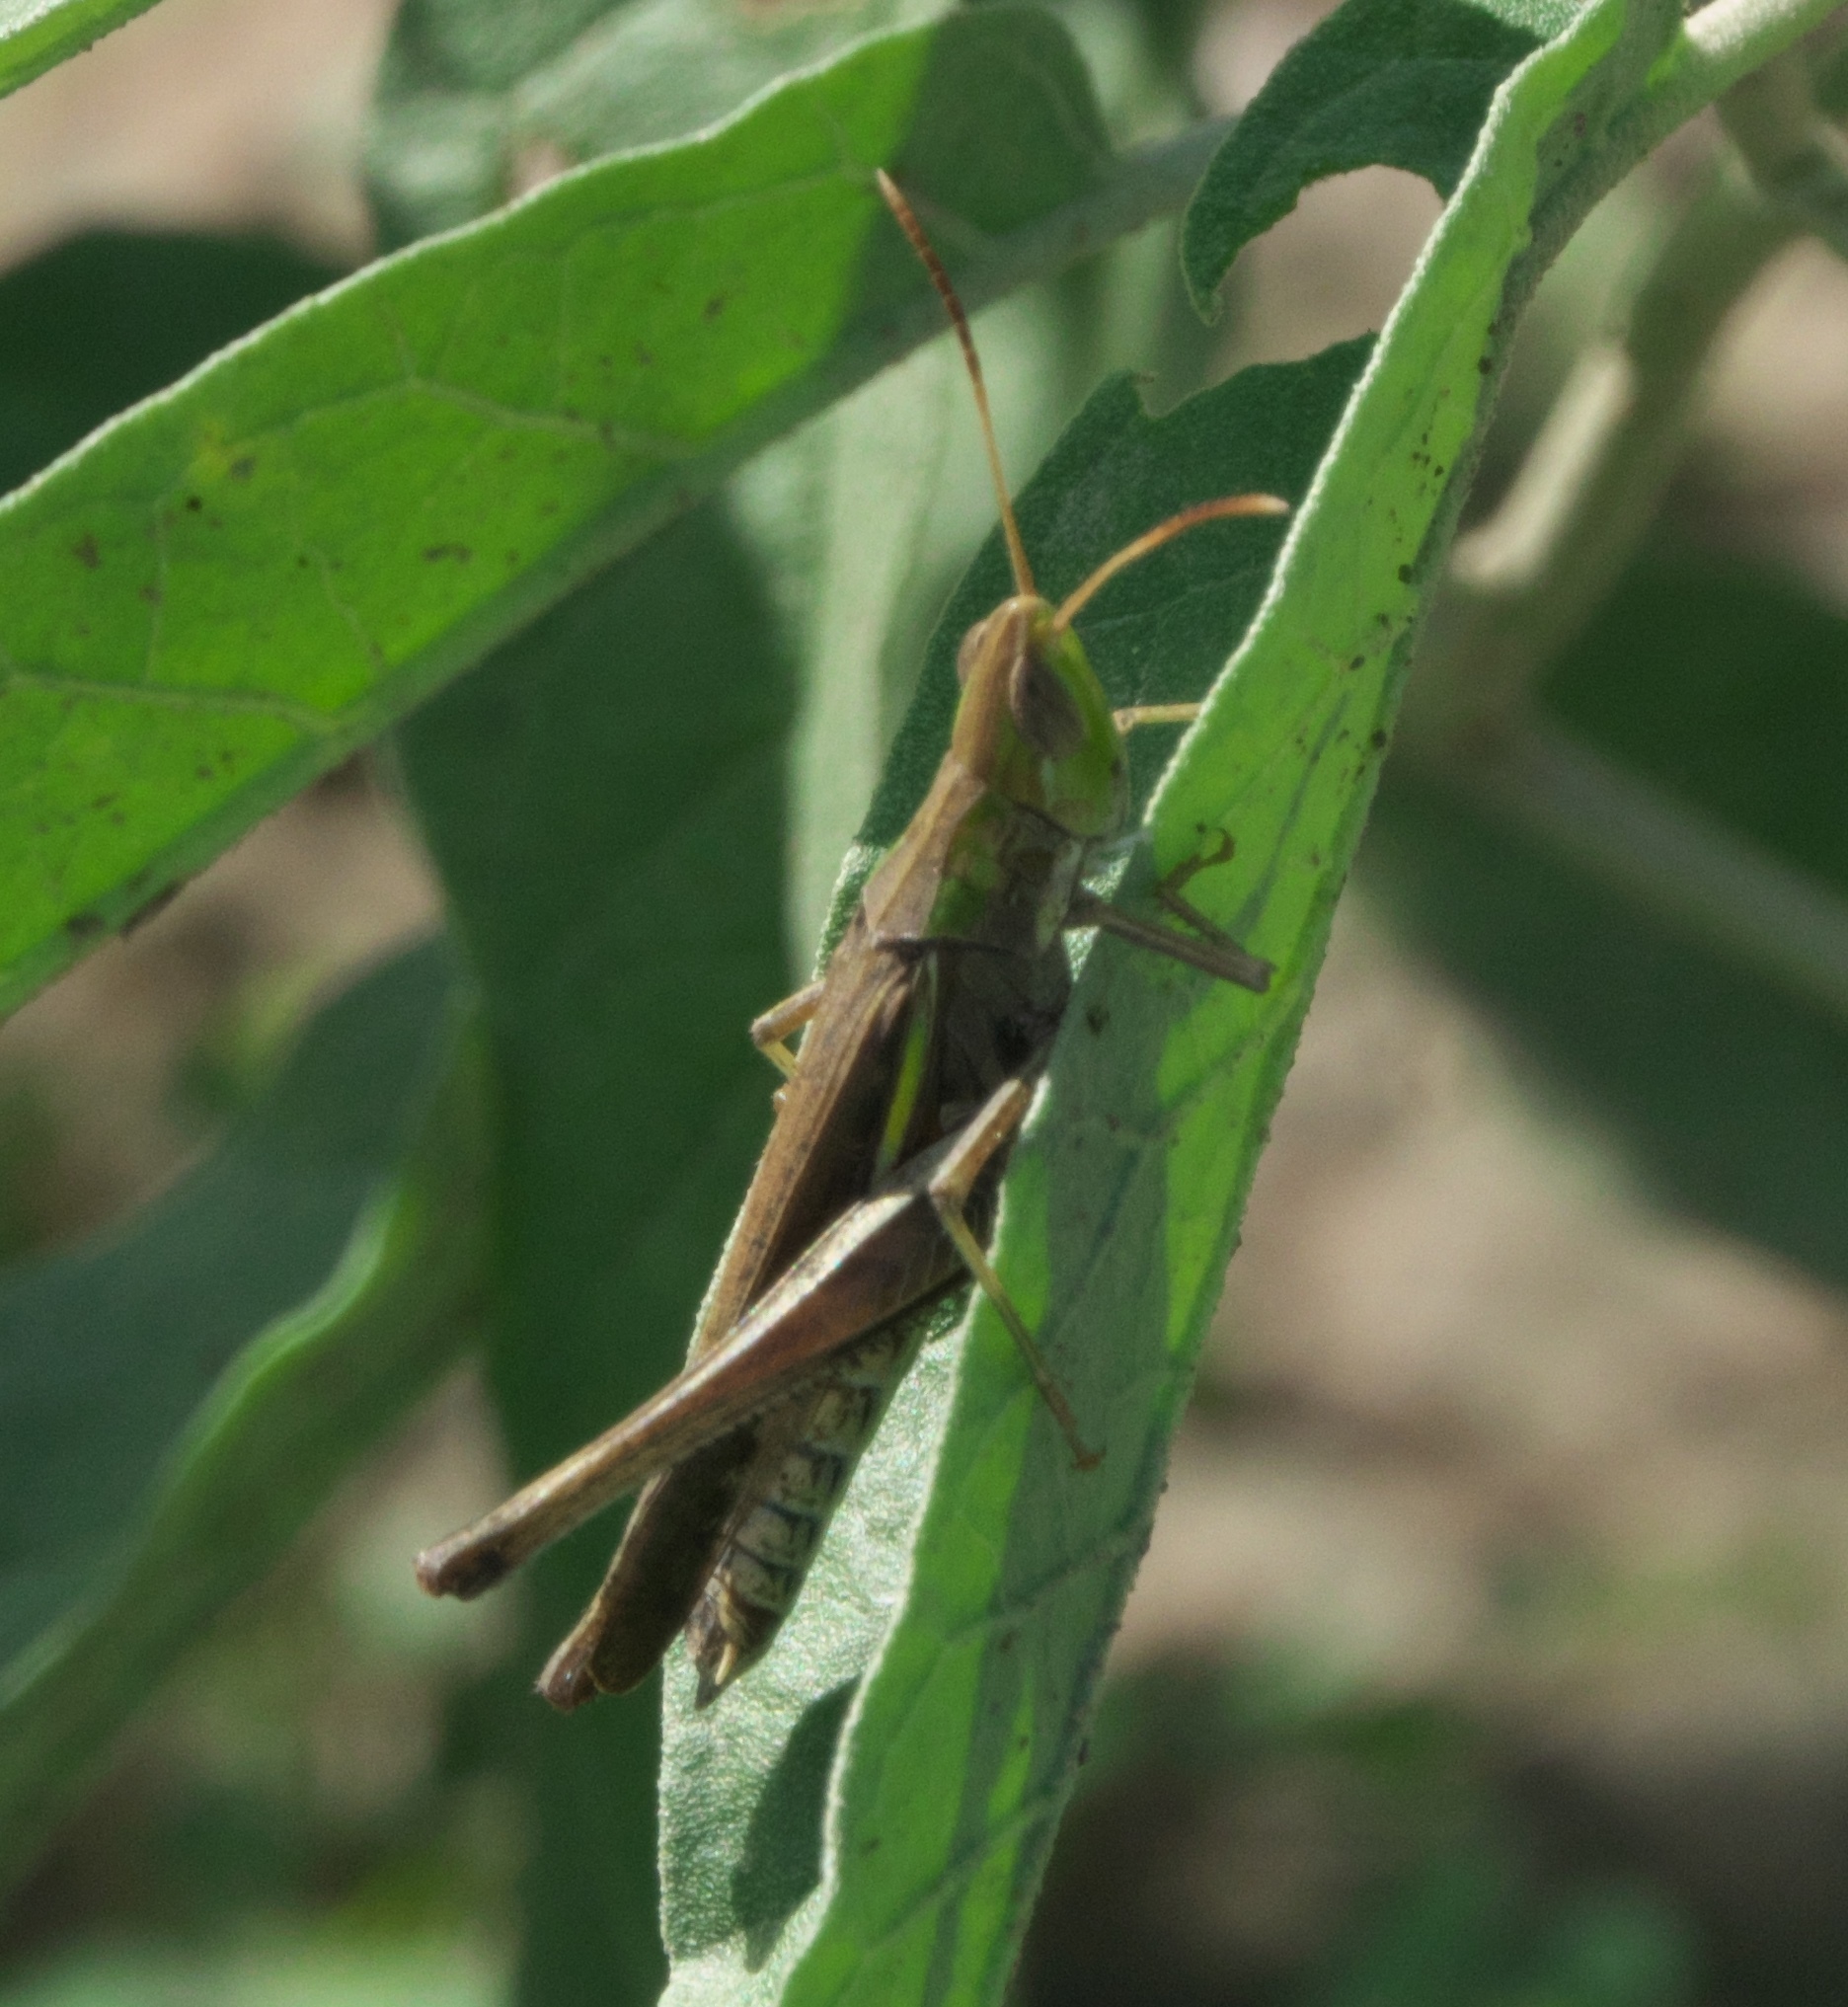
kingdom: Animalia
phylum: Arthropoda
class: Insecta
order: Orthoptera
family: Acrididae
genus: Syrbula
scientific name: Syrbula montezuma
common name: Montezuma's grasshopper
